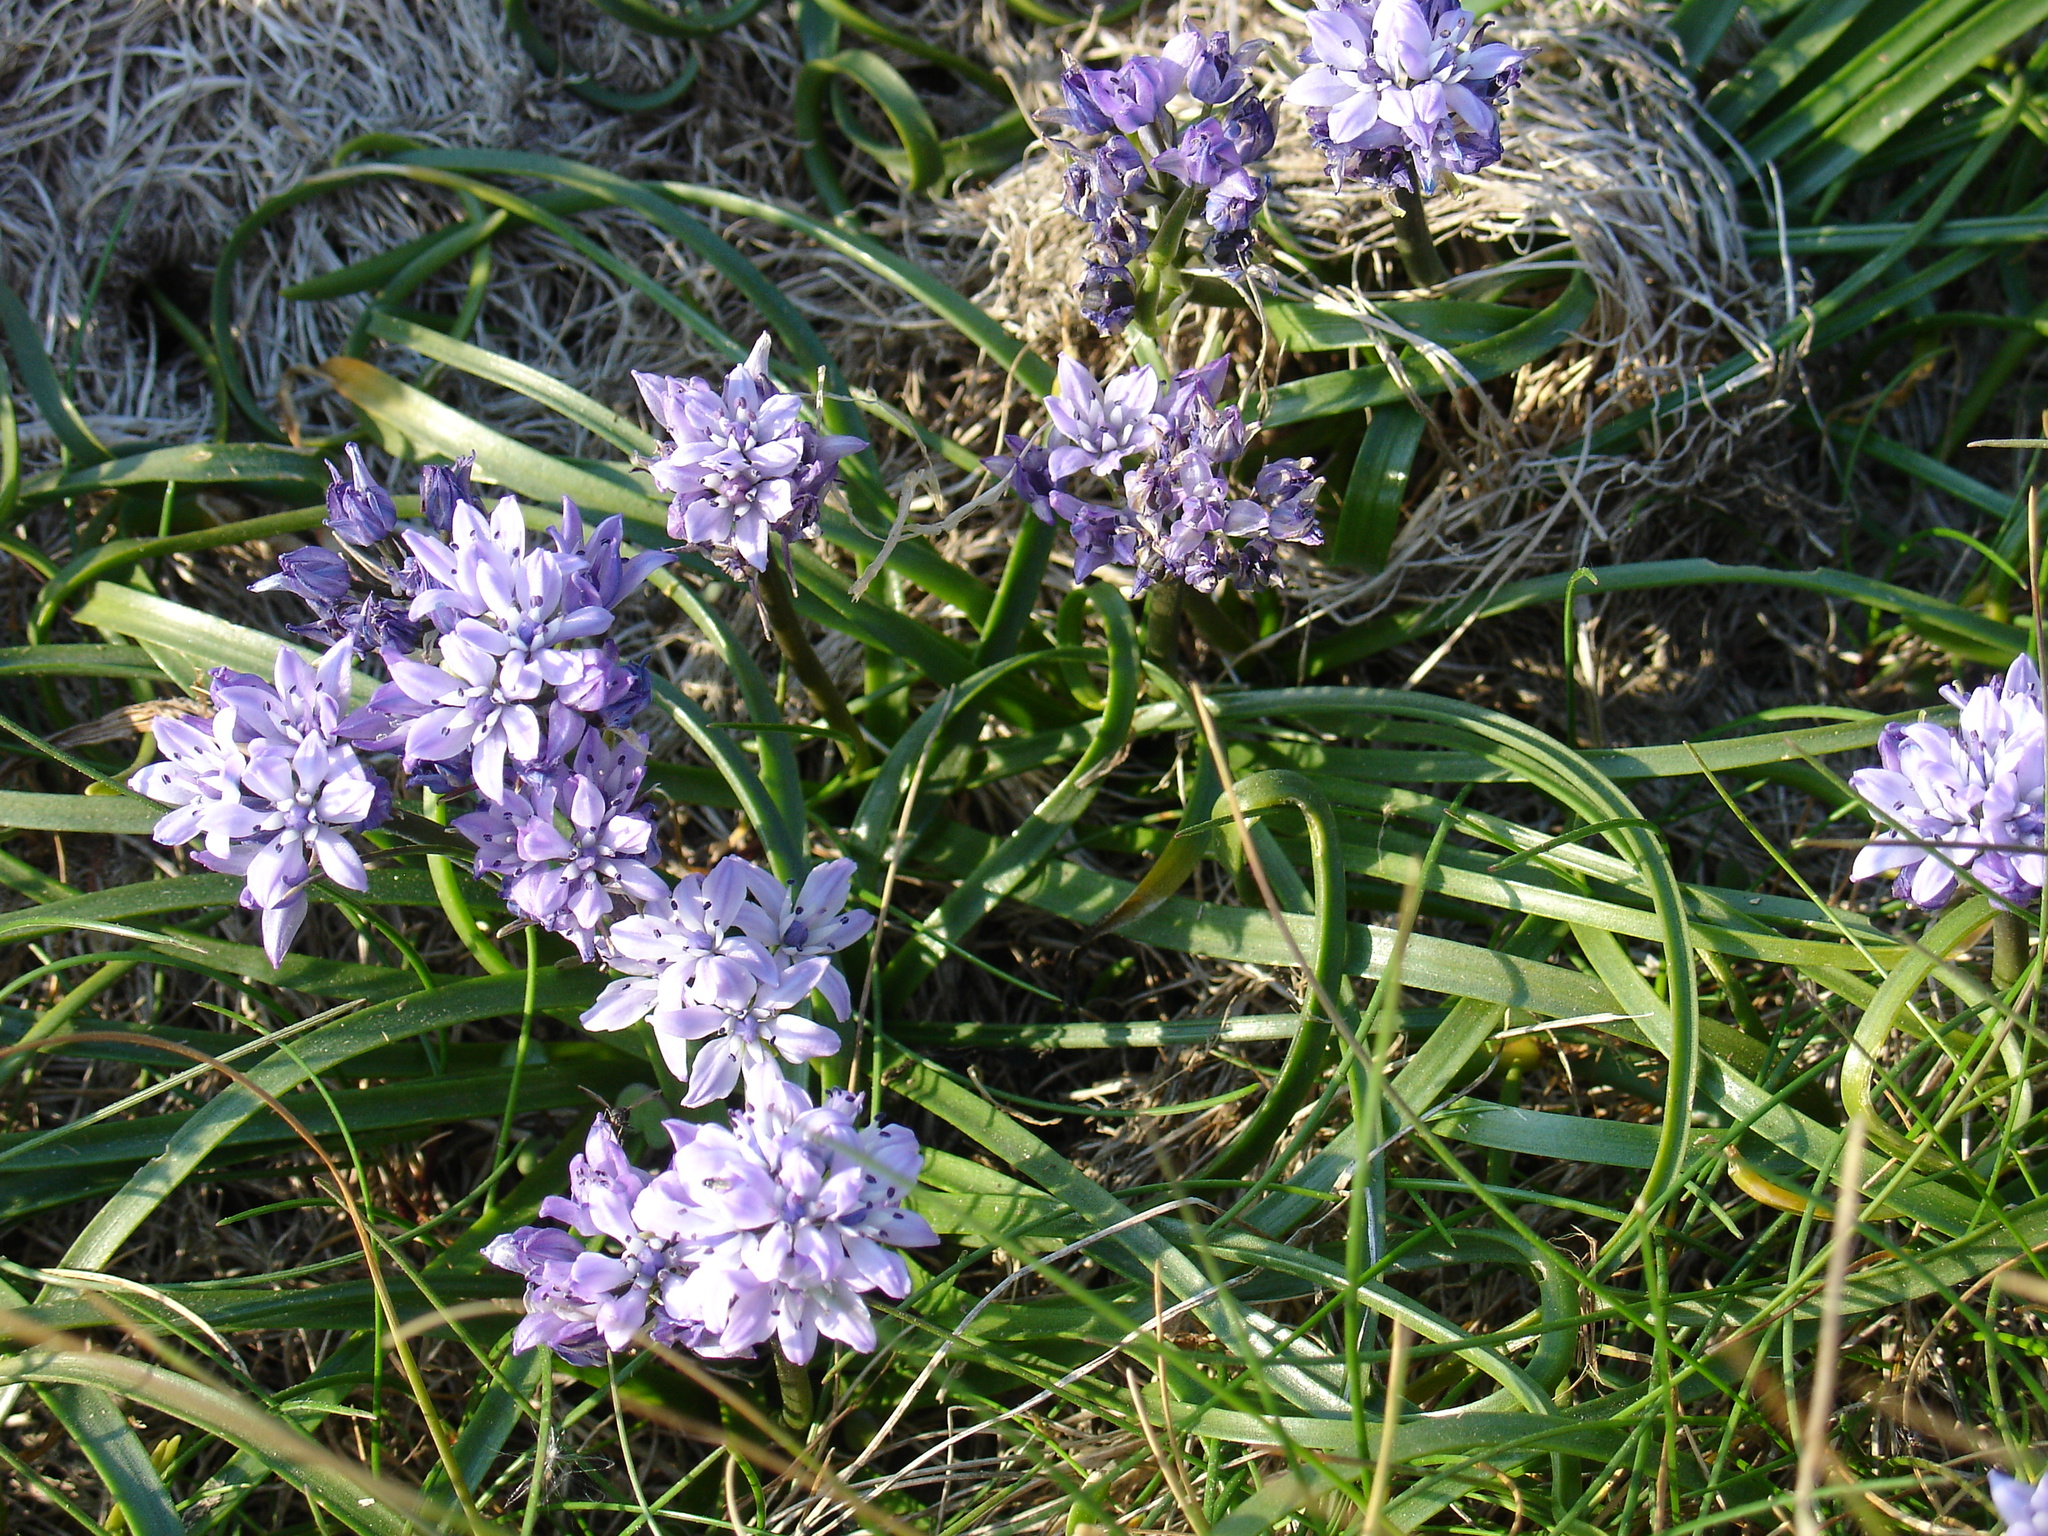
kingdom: Plantae
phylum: Tracheophyta
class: Liliopsida
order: Asparagales
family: Asparagaceae
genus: Scilla
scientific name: Scilla verna
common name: Spring squill
